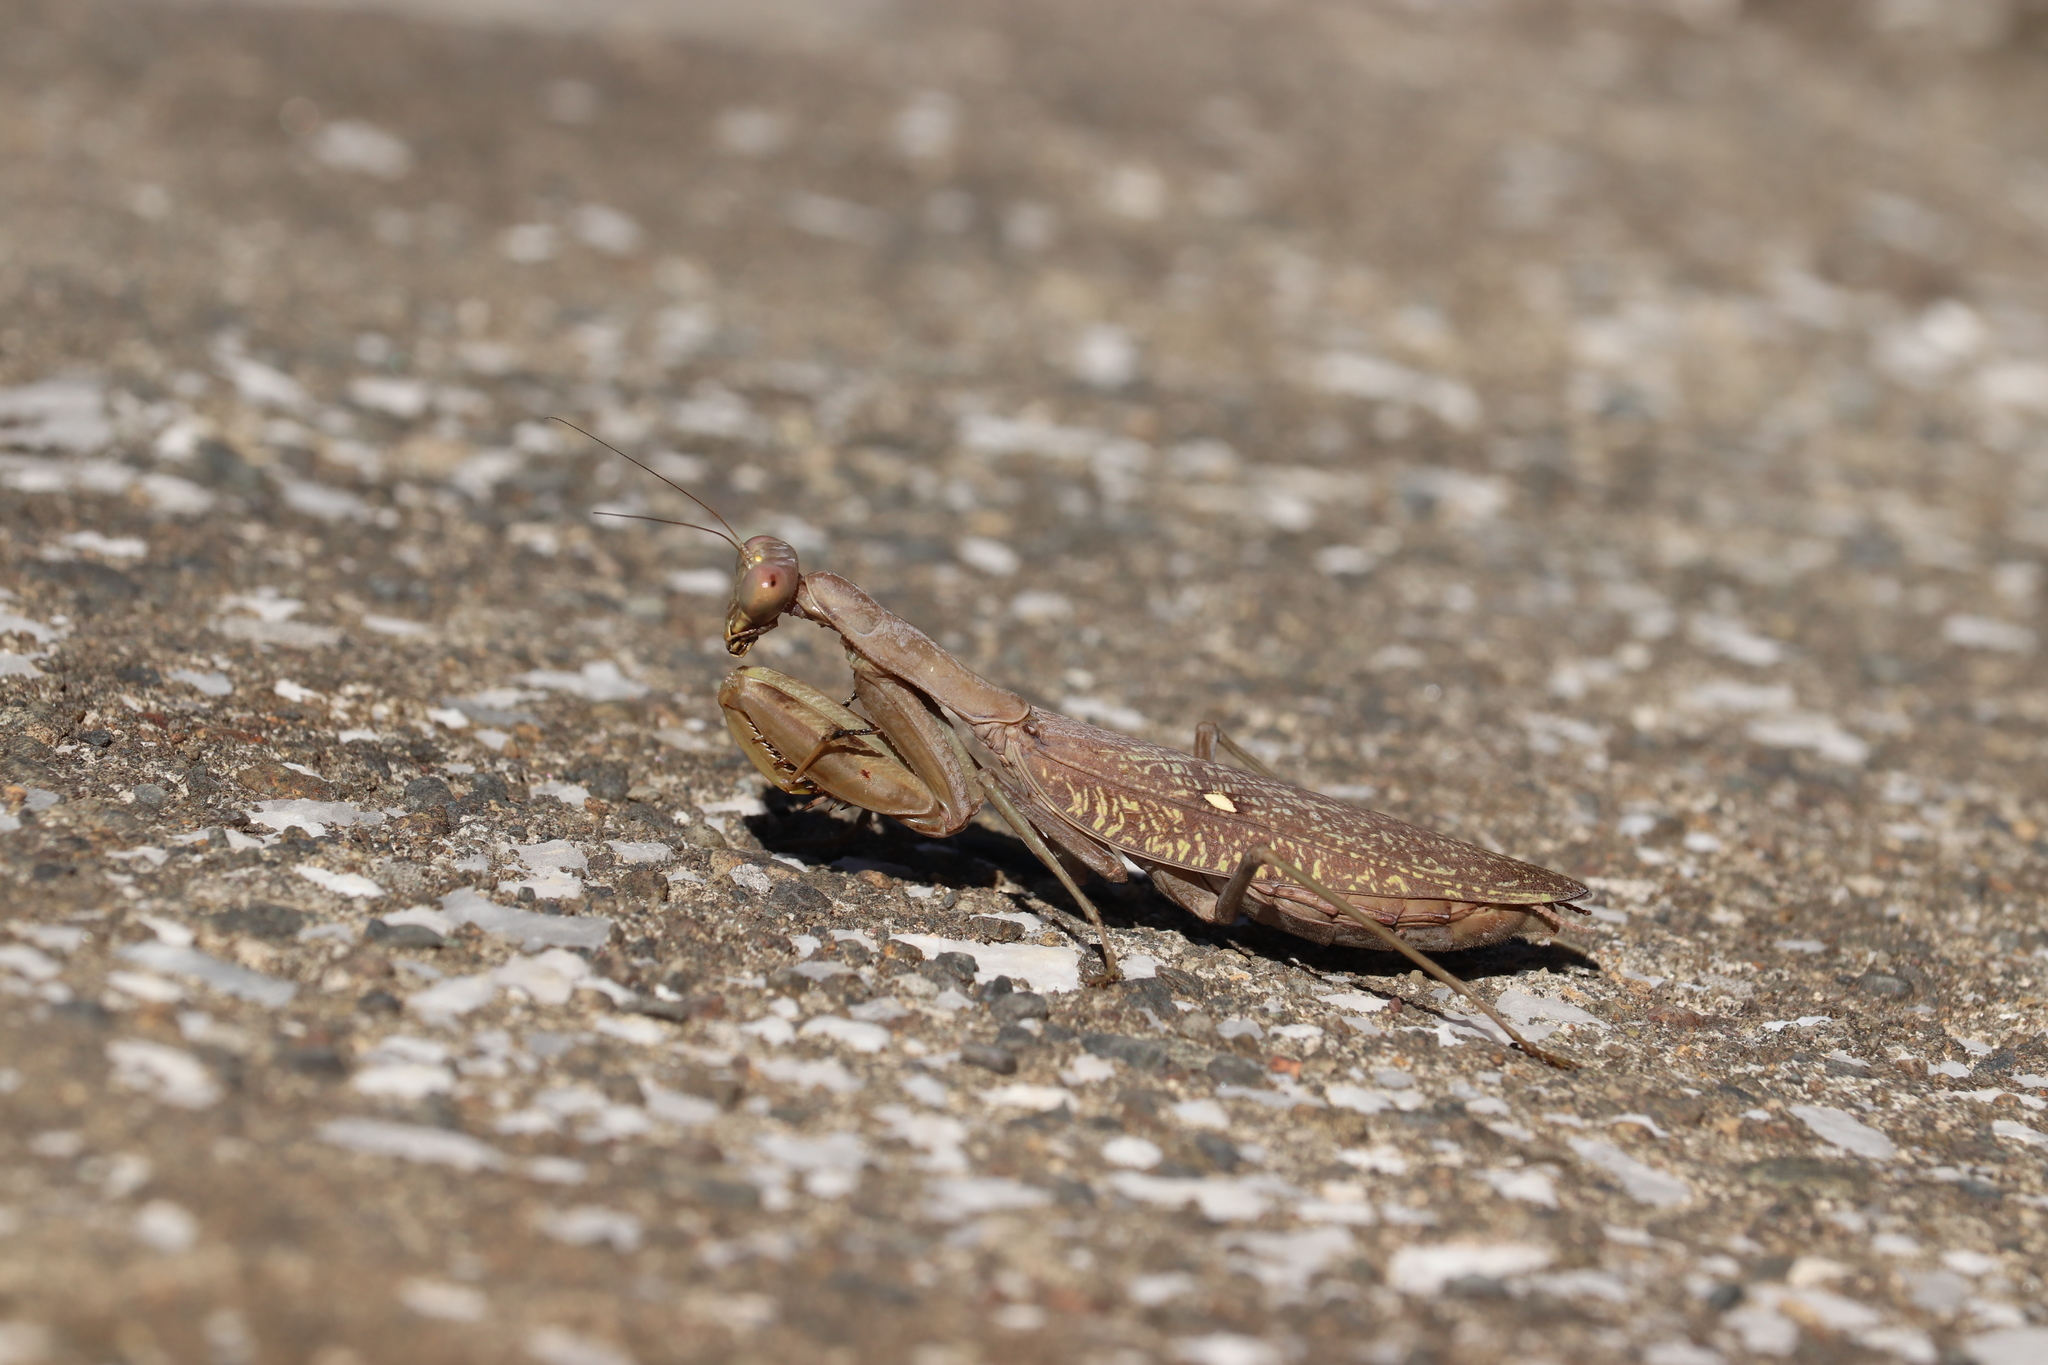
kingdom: Animalia
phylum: Arthropoda
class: Insecta
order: Mantodea
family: Mantidae
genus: Hierodula
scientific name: Hierodula patellifera
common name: Asian mantis
